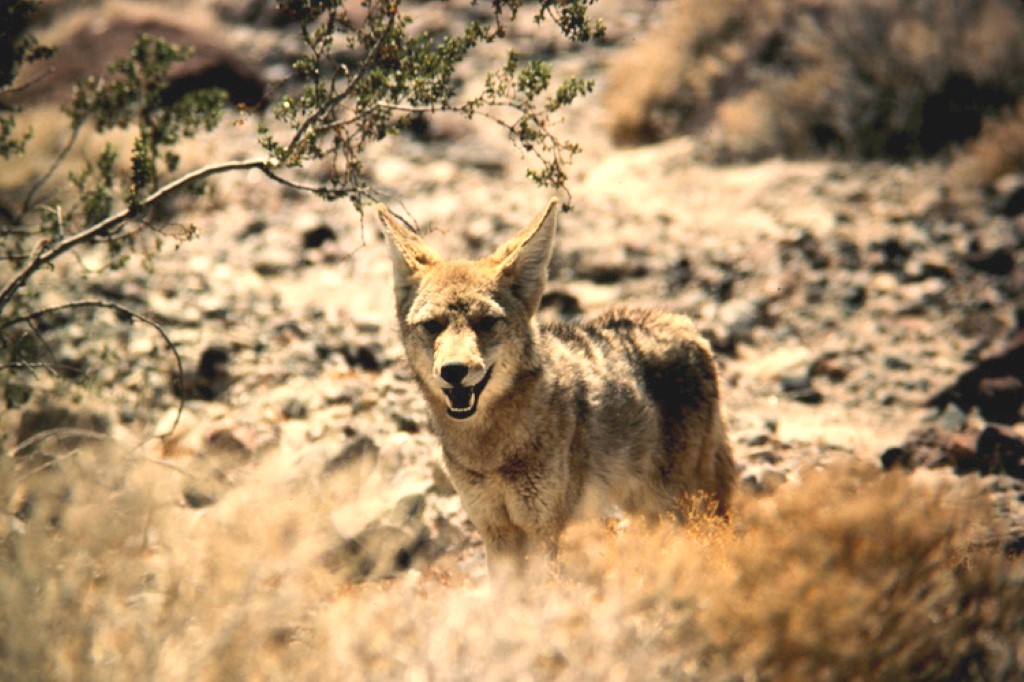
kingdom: Animalia
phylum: Chordata
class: Mammalia
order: Carnivora
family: Canidae
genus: Canis
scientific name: Canis latrans
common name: Coyote
